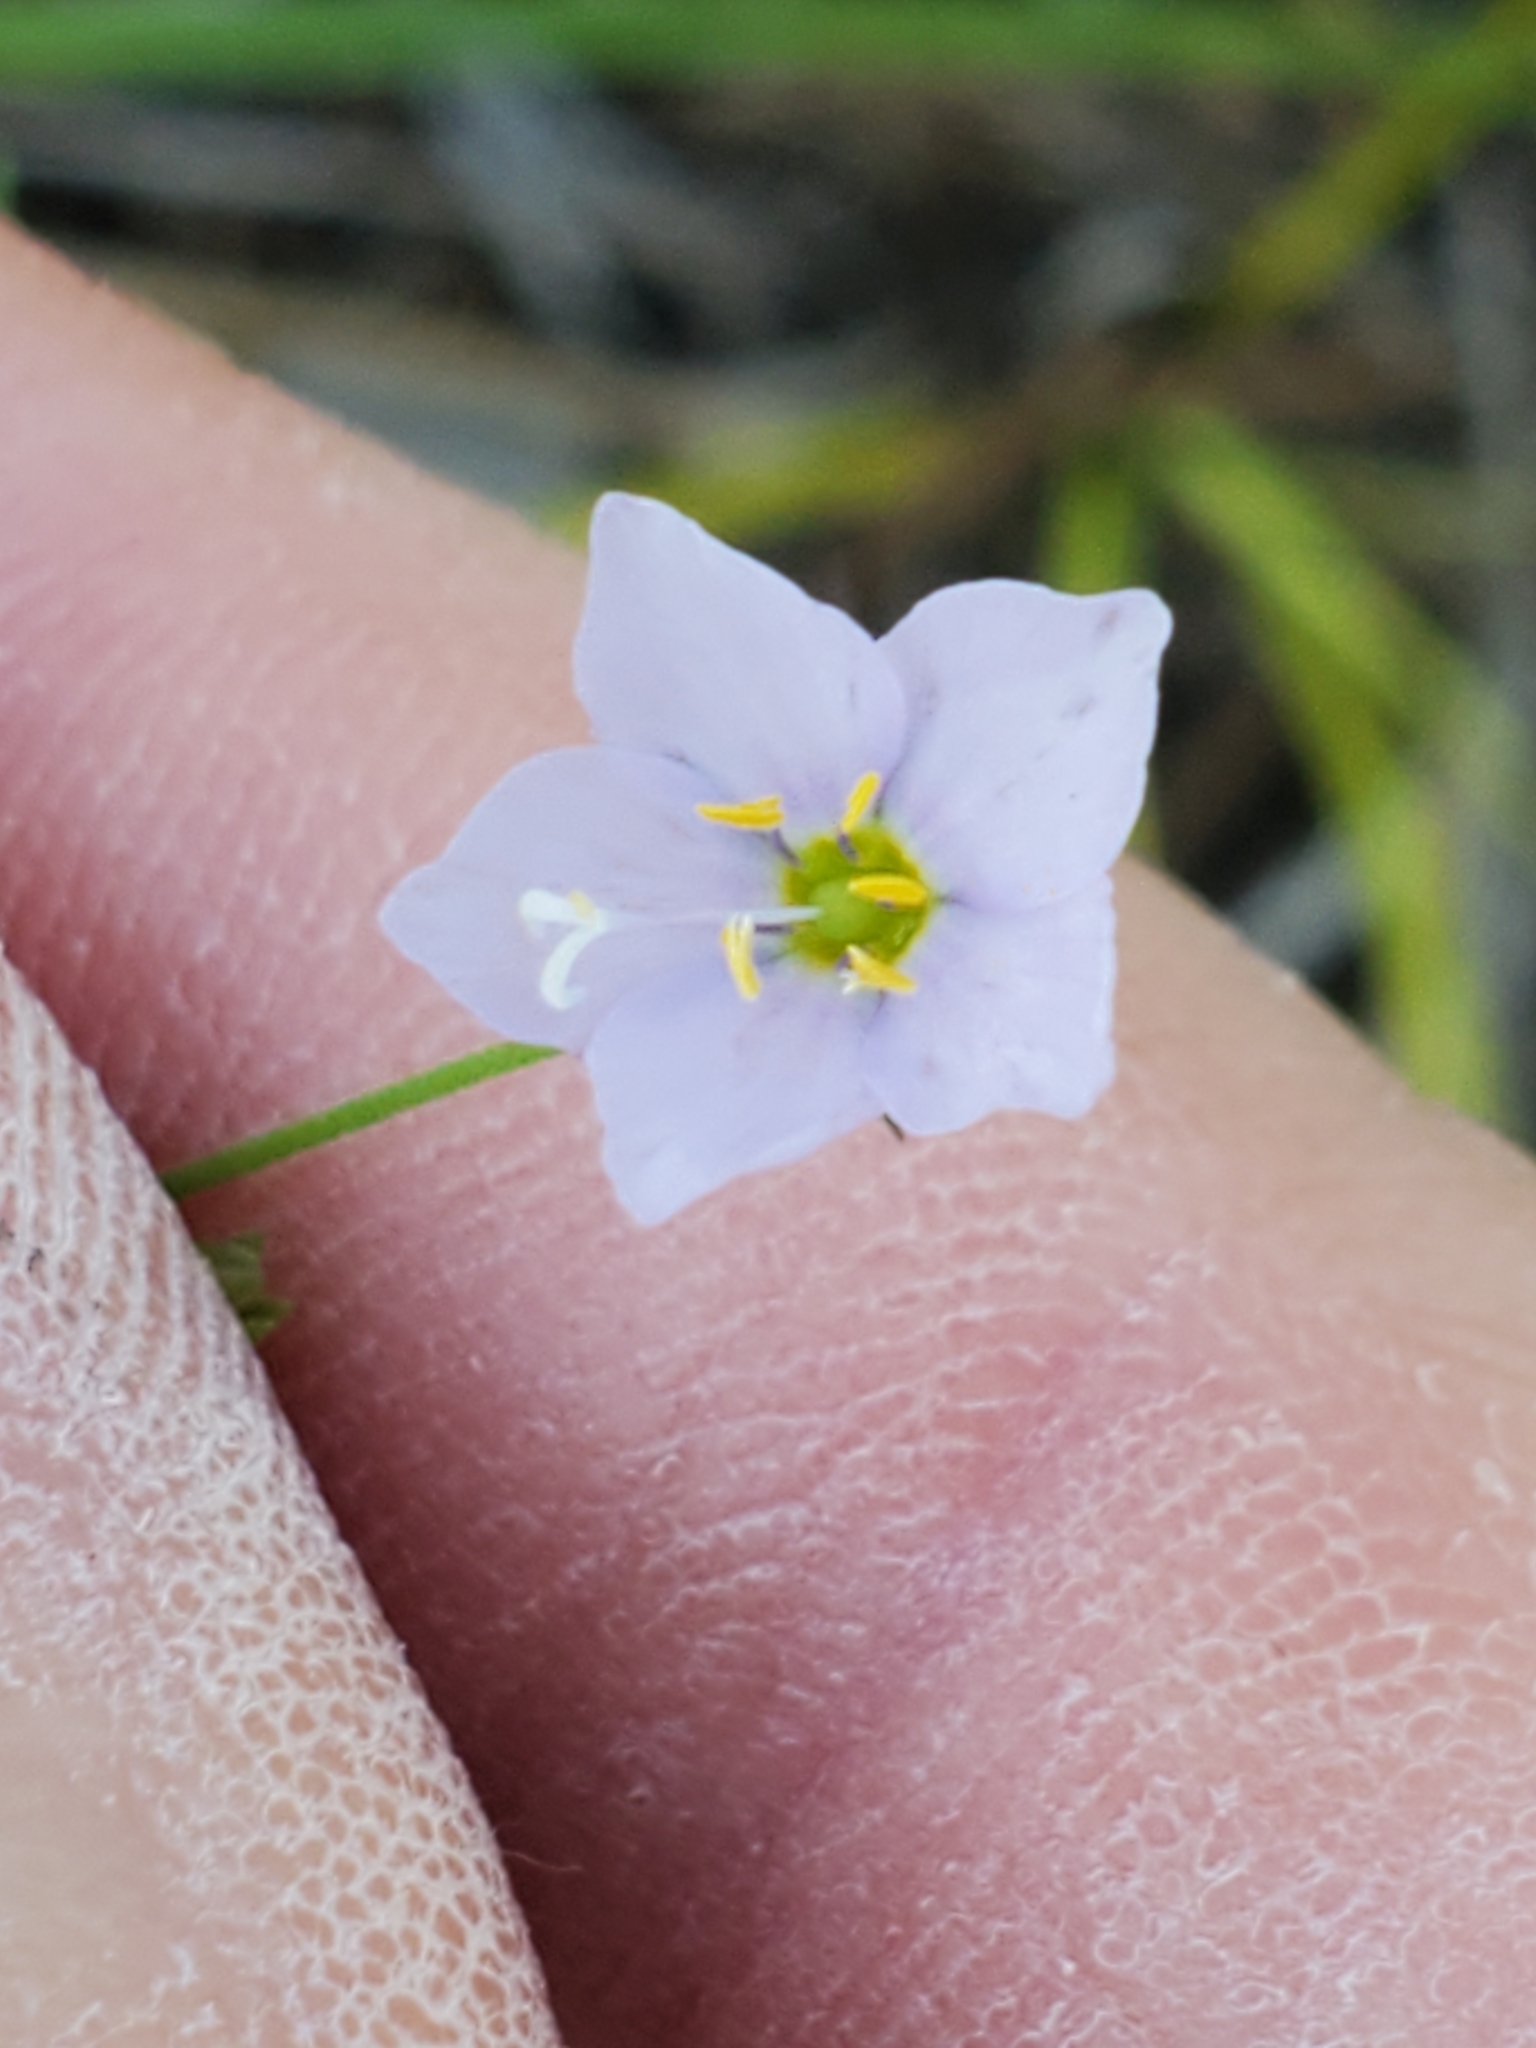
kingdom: Plantae
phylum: Tracheophyta
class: Magnoliopsida
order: Ericales
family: Polemoniaceae
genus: Giliastrum
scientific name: Giliastrum incisum
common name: Splitleaf gilia
